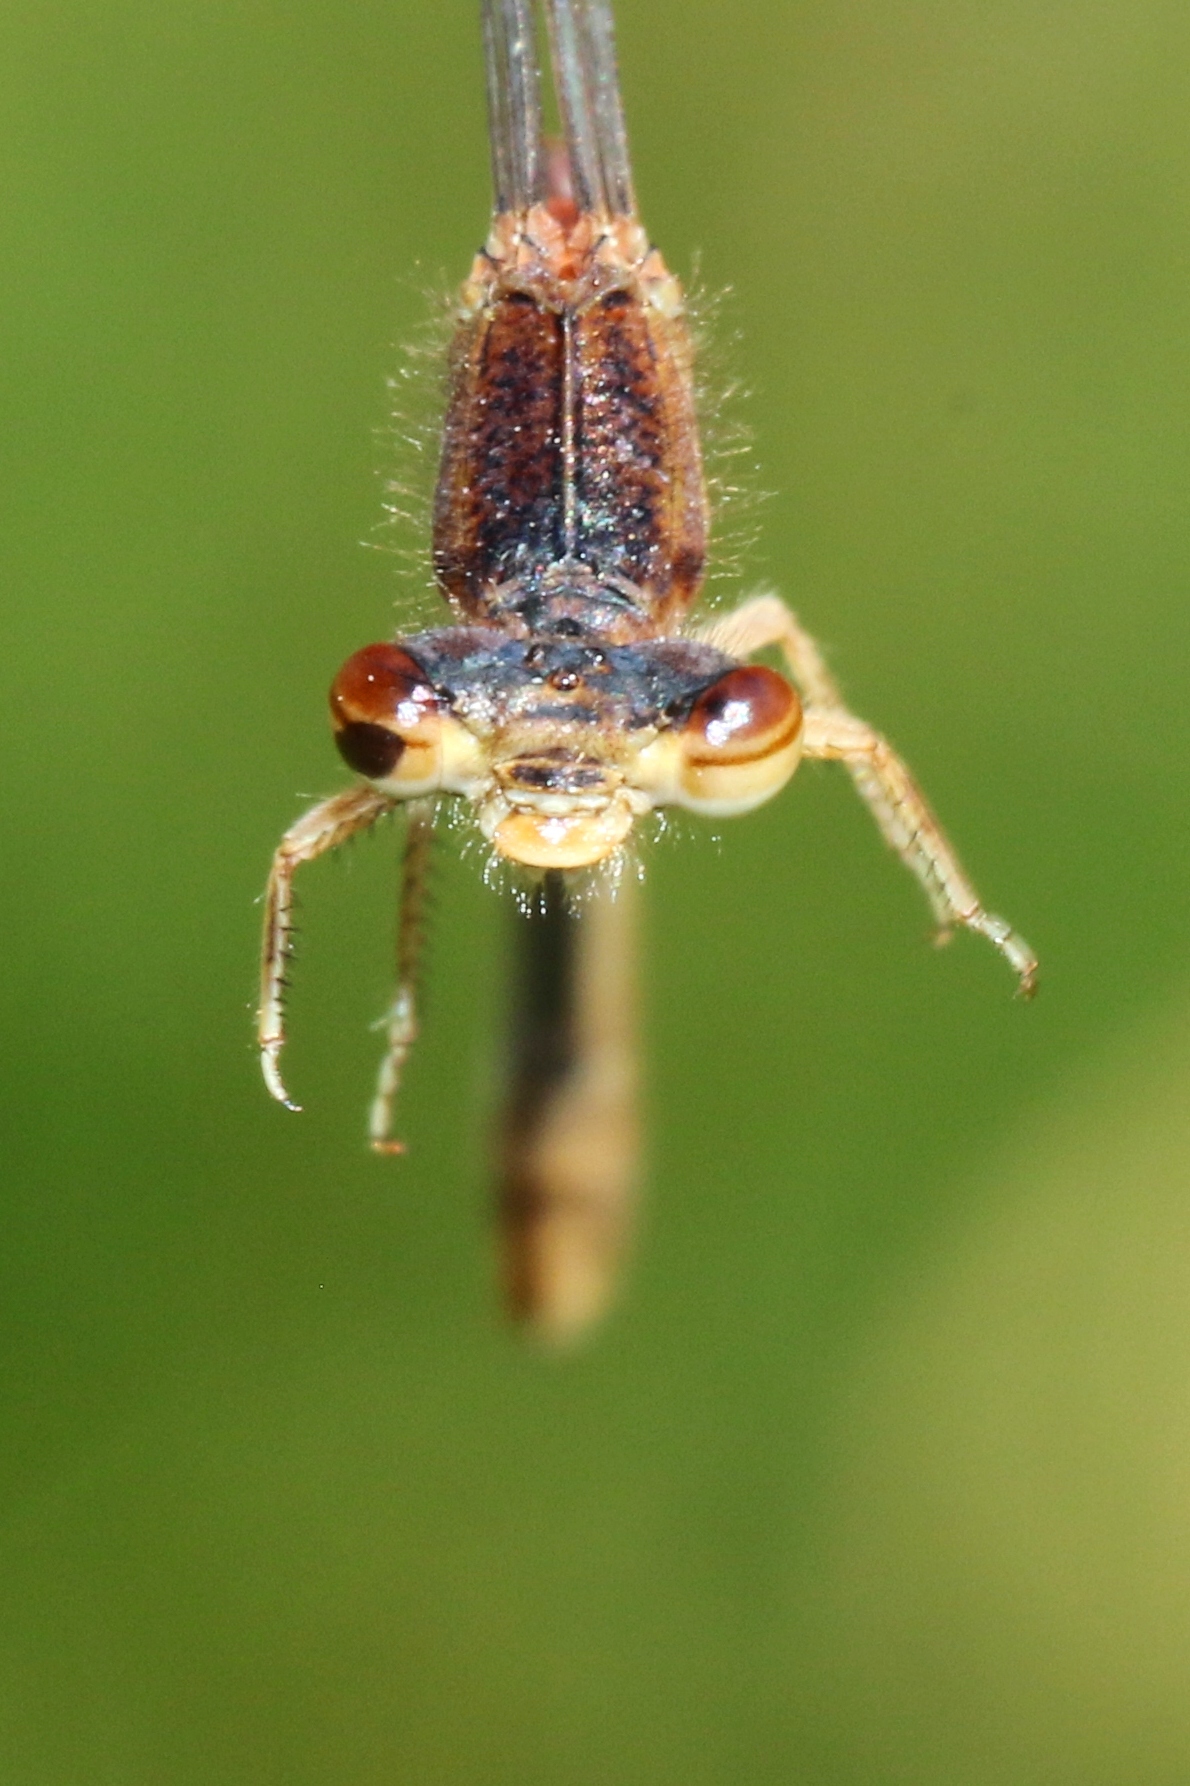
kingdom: Animalia
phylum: Arthropoda
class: Insecta
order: Odonata
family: Coenagrionidae
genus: Amphiagrion
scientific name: Amphiagrion saucium
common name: Eastern red damsel
